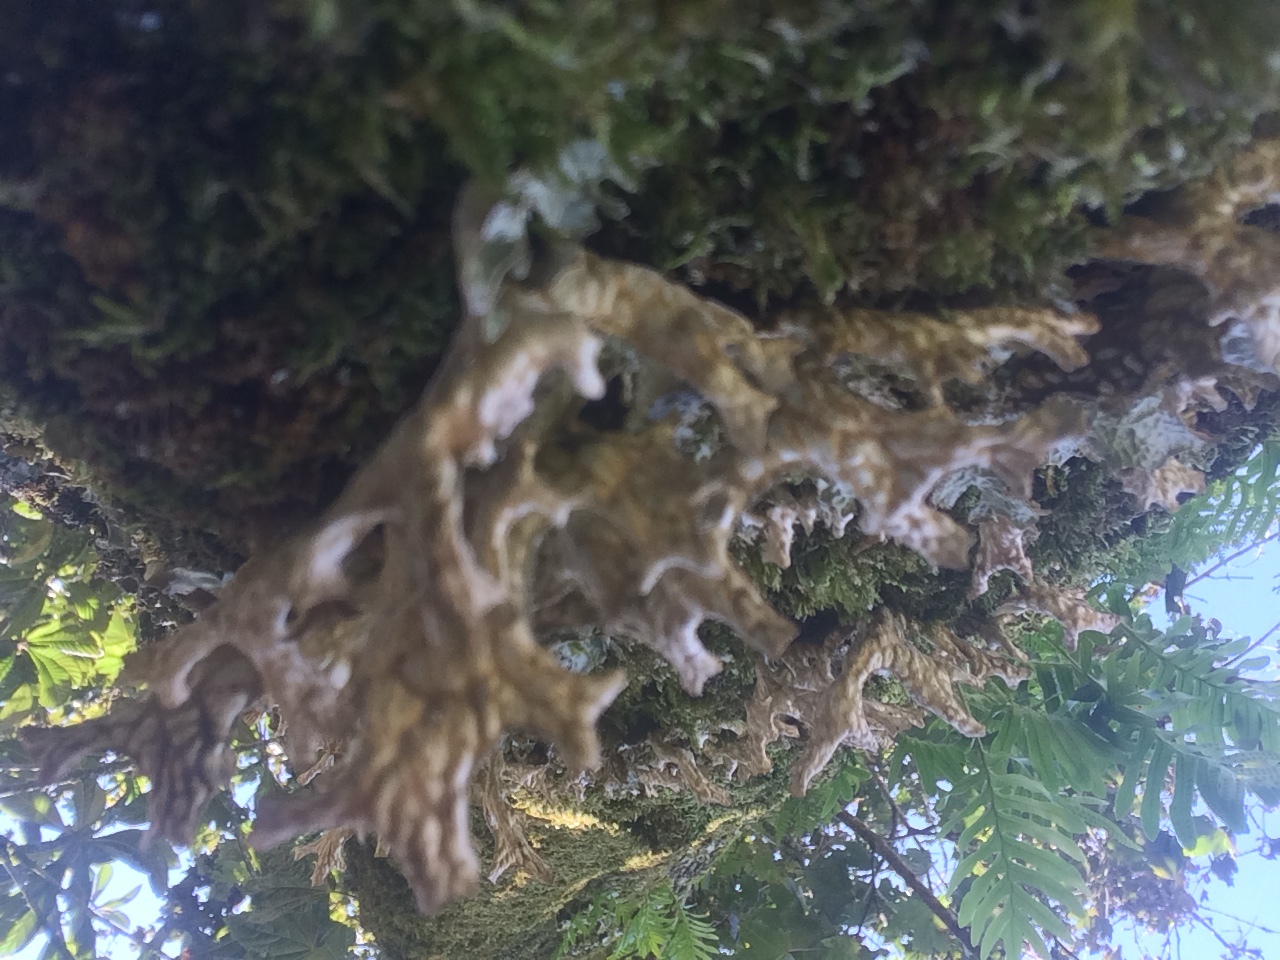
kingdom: Fungi
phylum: Ascomycota
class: Lecanoromycetes
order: Peltigerales
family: Lobariaceae
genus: Lobaria
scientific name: Lobaria pulmonaria
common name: Lungwort
